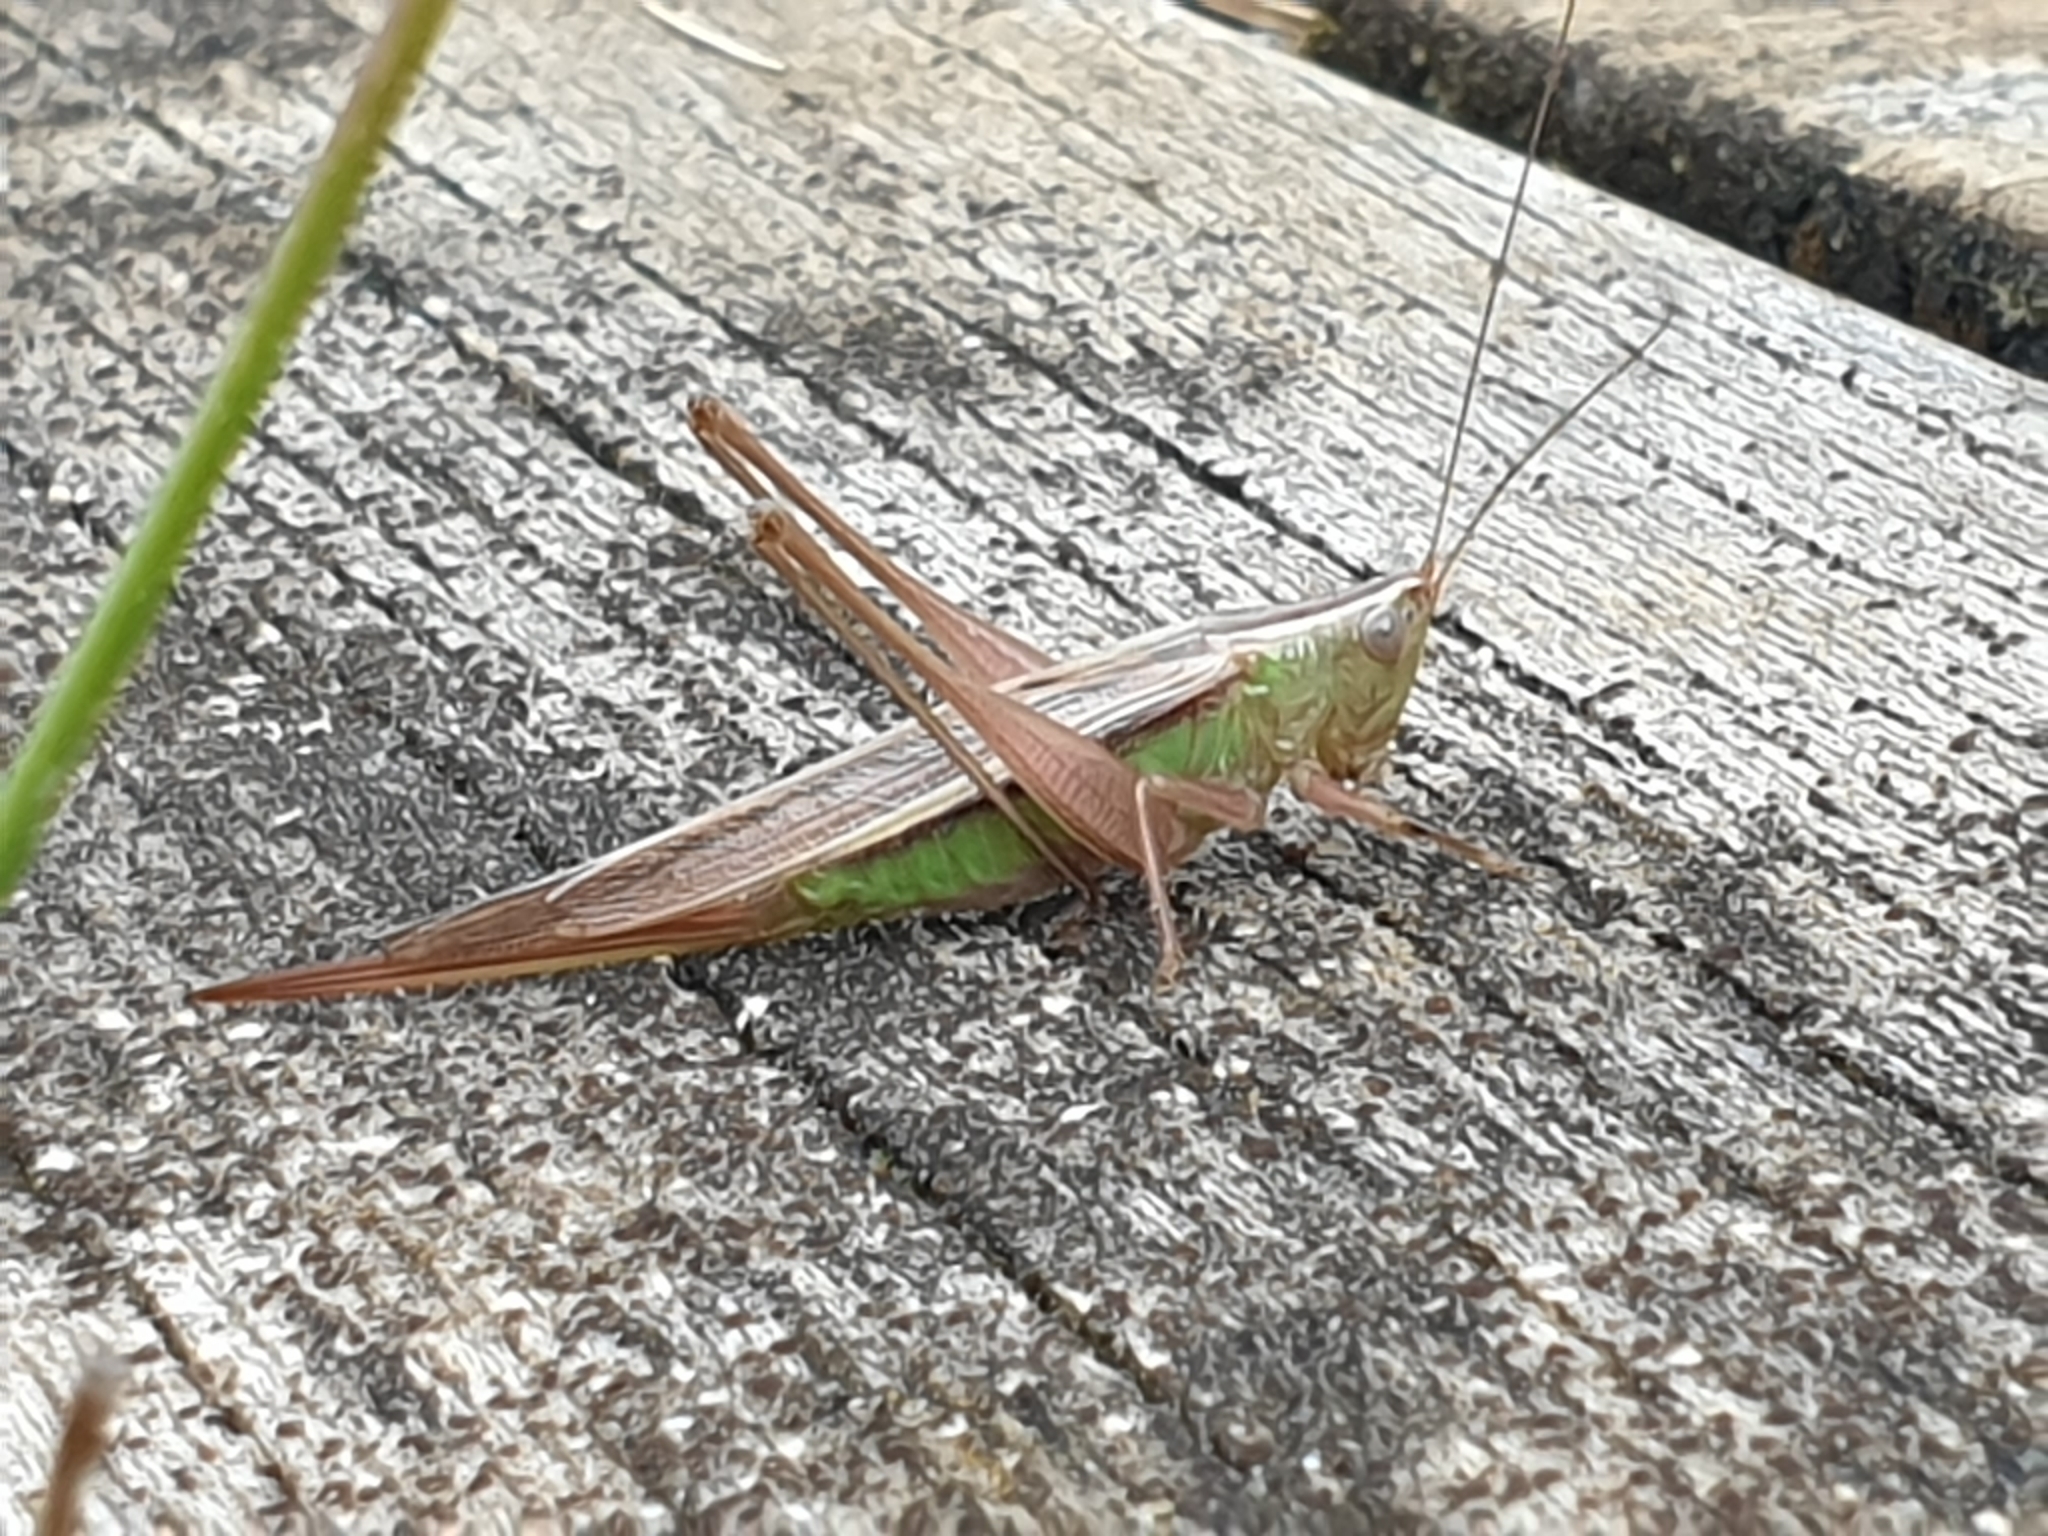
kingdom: Animalia
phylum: Arthropoda
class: Insecta
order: Orthoptera
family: Tettigoniidae
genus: Conocephalus
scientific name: Conocephalus albescens
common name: Whitish meadow katydid
